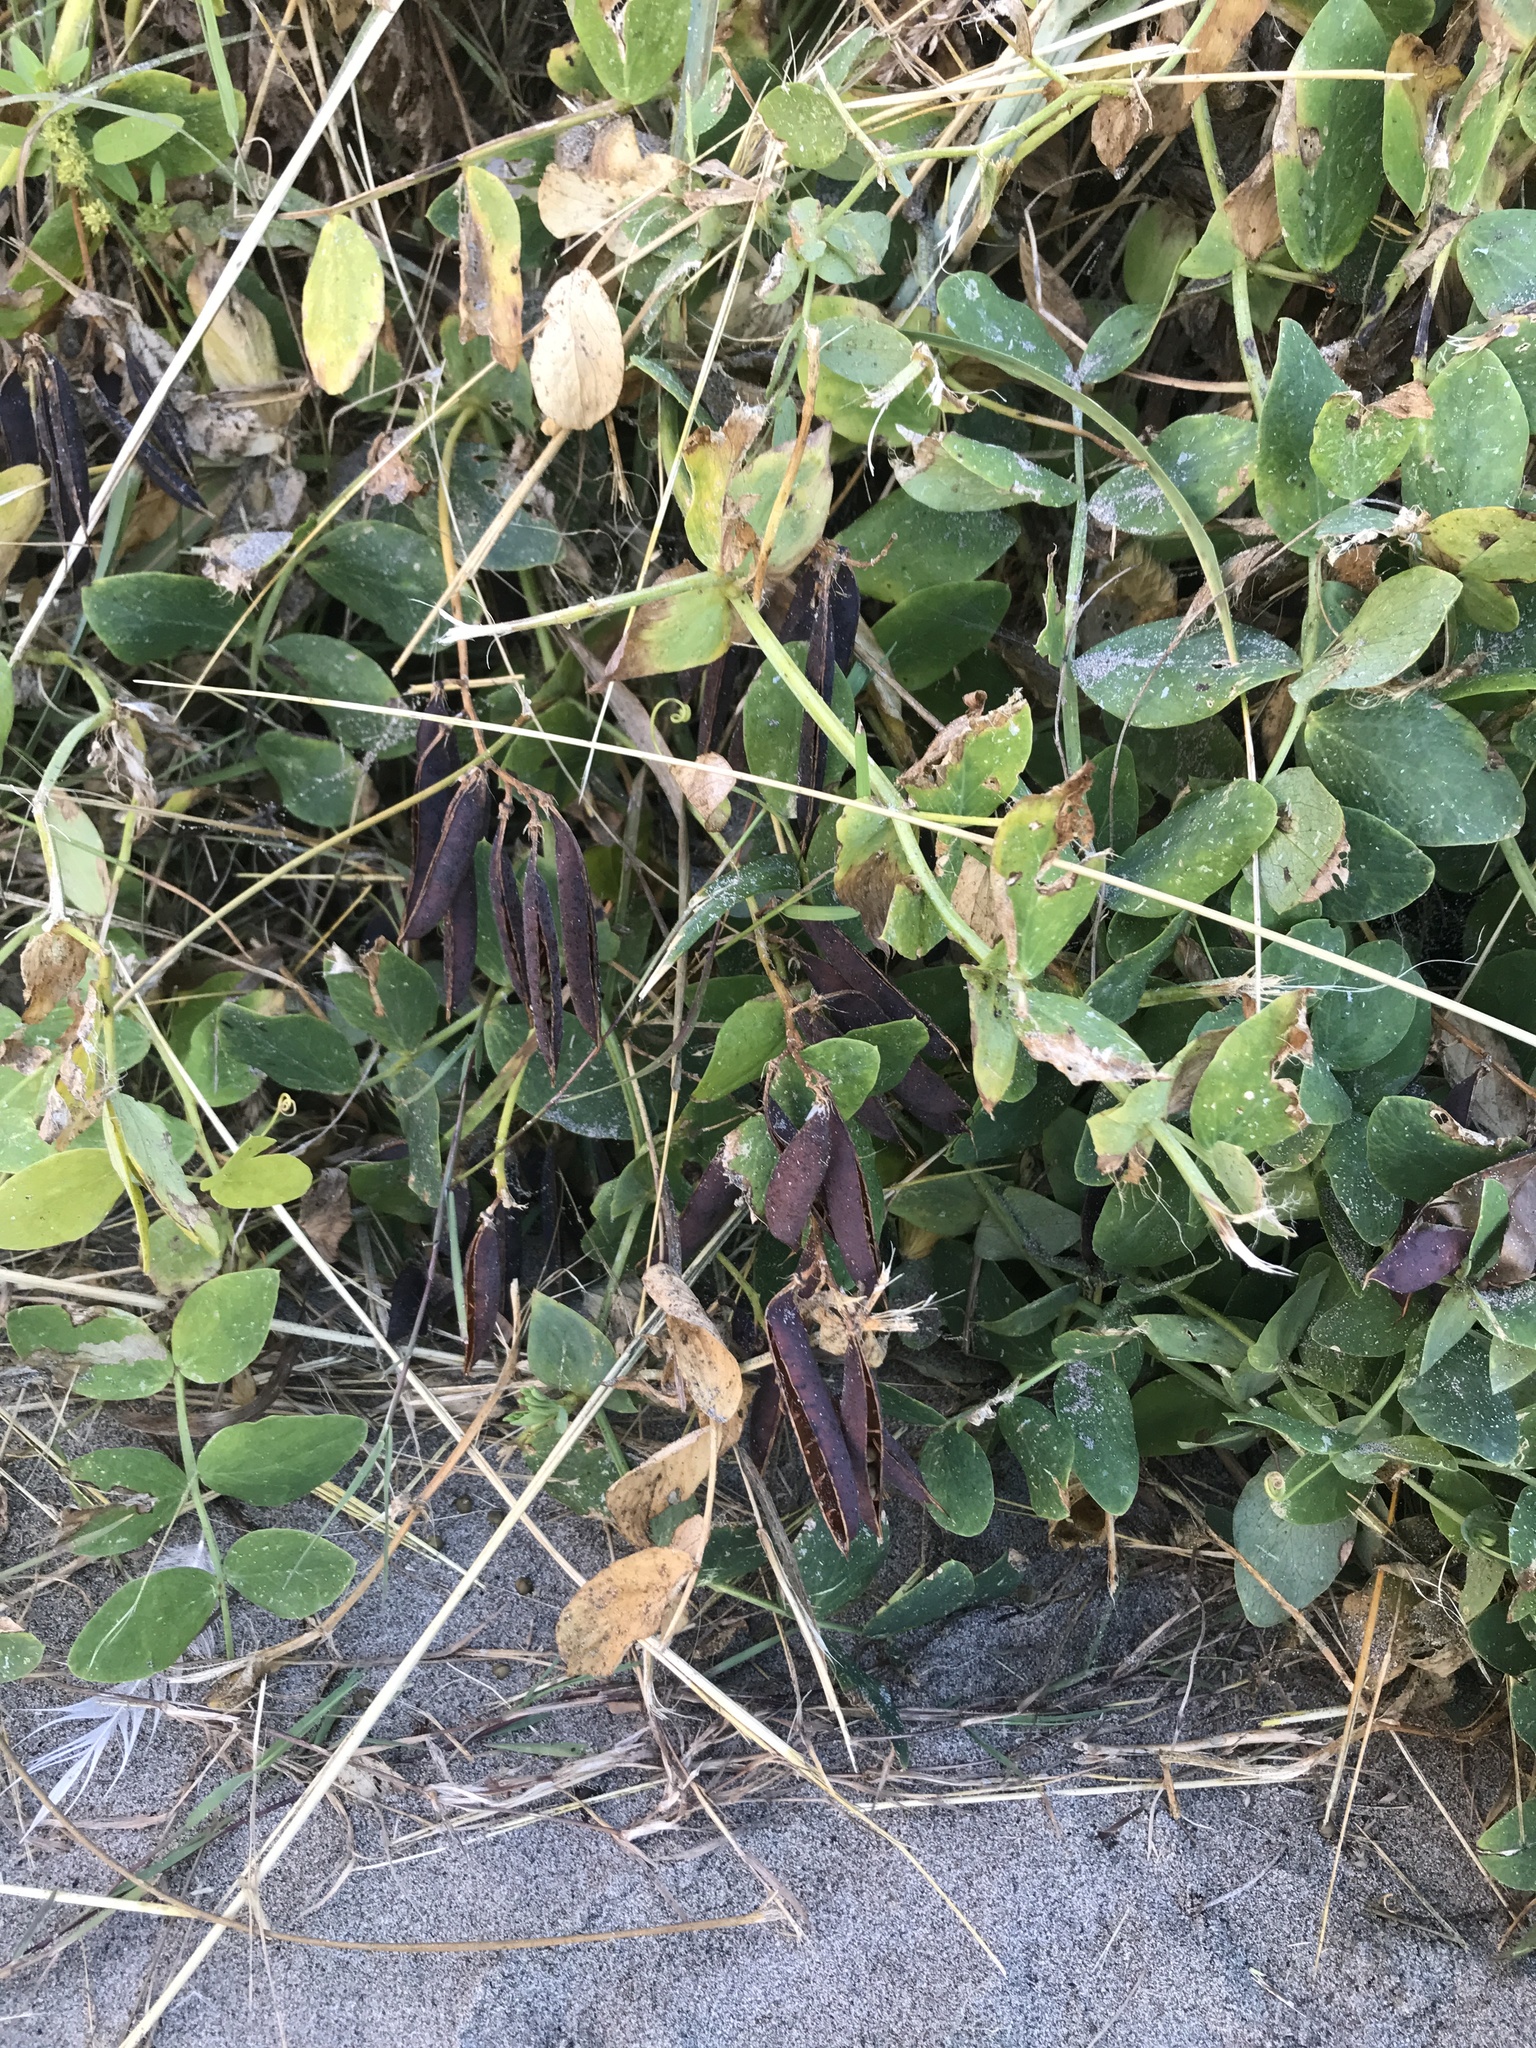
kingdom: Plantae
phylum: Tracheophyta
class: Magnoliopsida
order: Fabales
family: Fabaceae
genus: Lathyrus
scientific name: Lathyrus japonicus
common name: Sea pea
